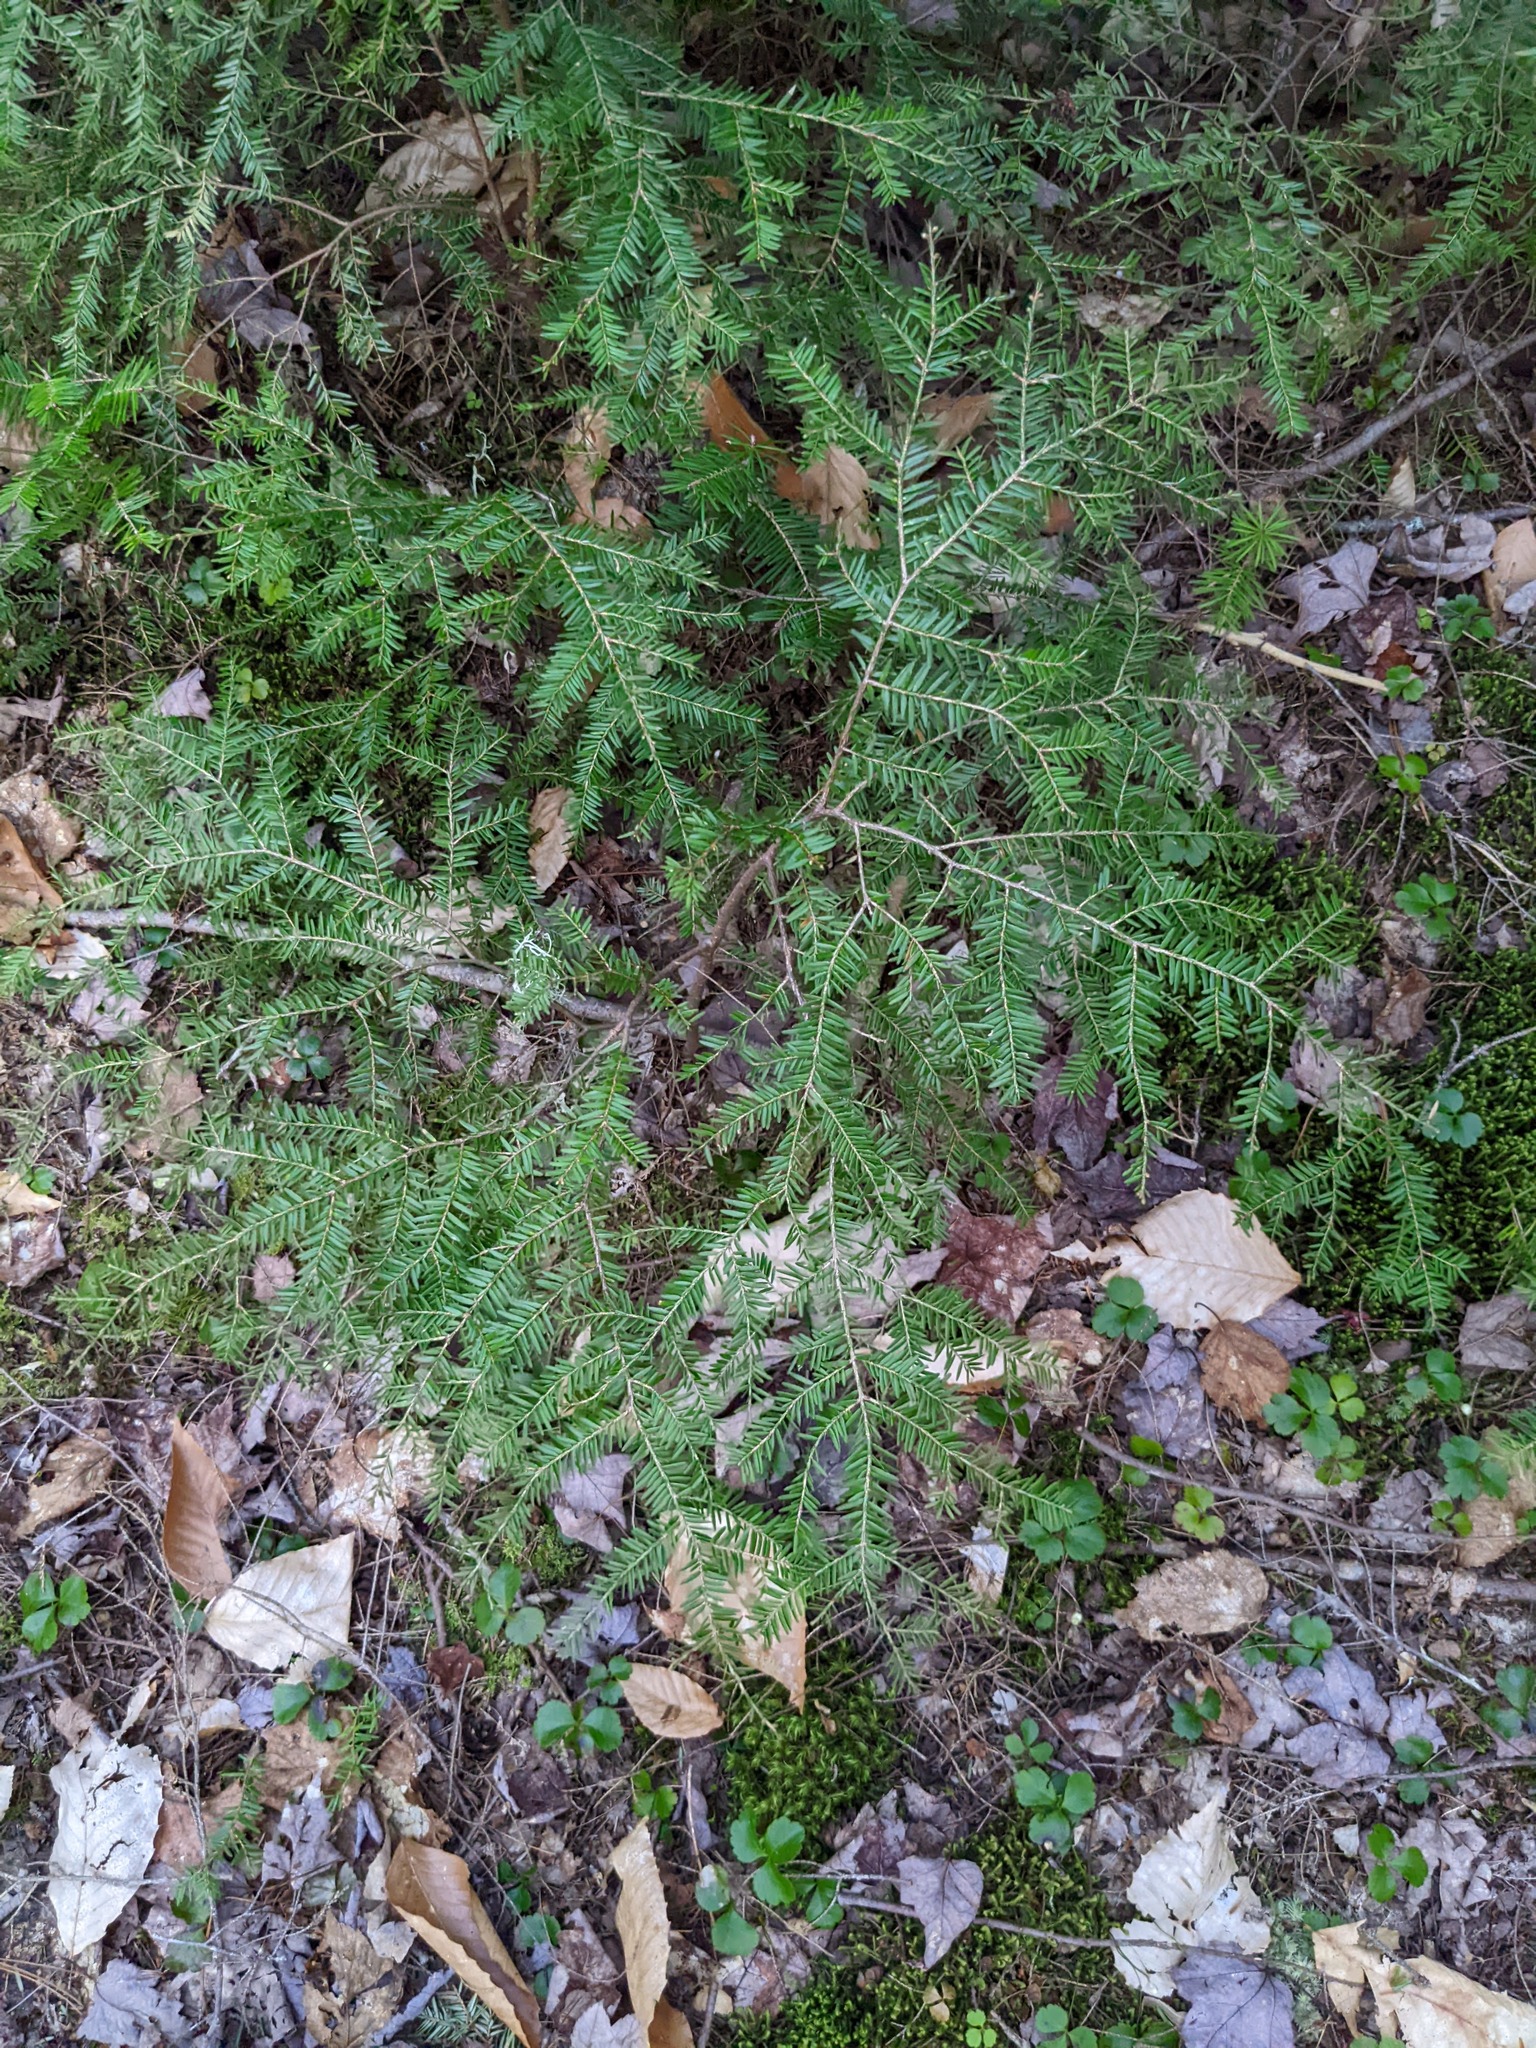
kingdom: Plantae
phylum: Tracheophyta
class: Pinopsida
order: Pinales
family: Pinaceae
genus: Tsuga
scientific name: Tsuga canadensis
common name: Eastern hemlock
